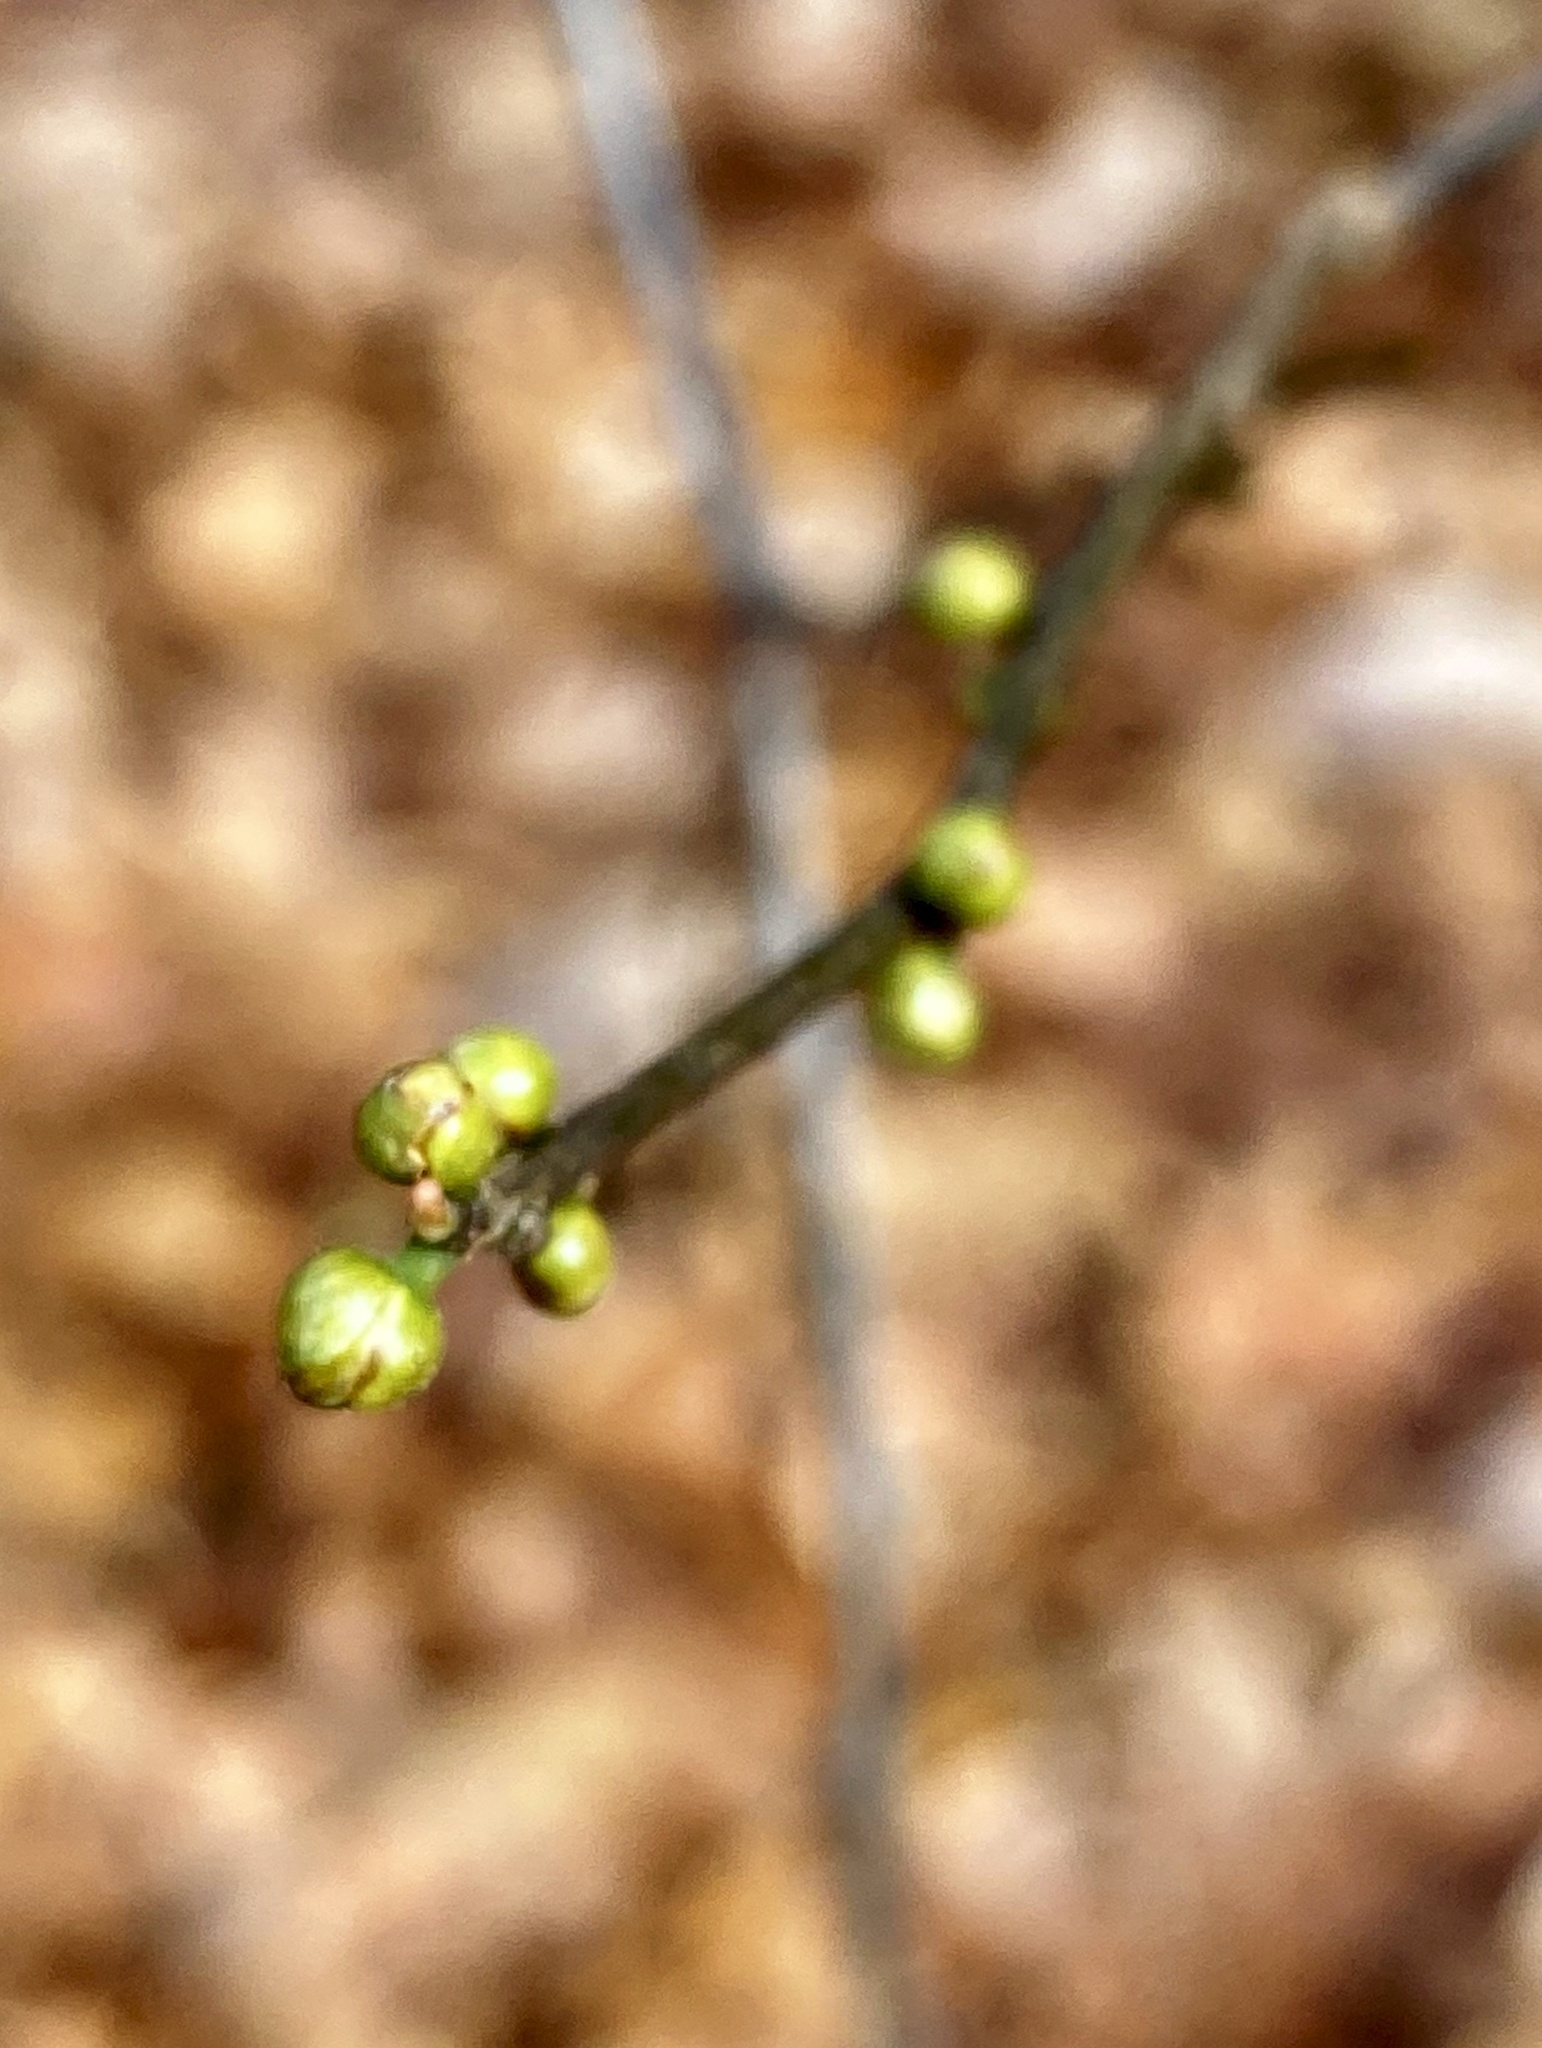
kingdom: Plantae
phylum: Tracheophyta
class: Magnoliopsida
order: Laurales
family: Lauraceae
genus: Lindera
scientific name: Lindera benzoin
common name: Spicebush
